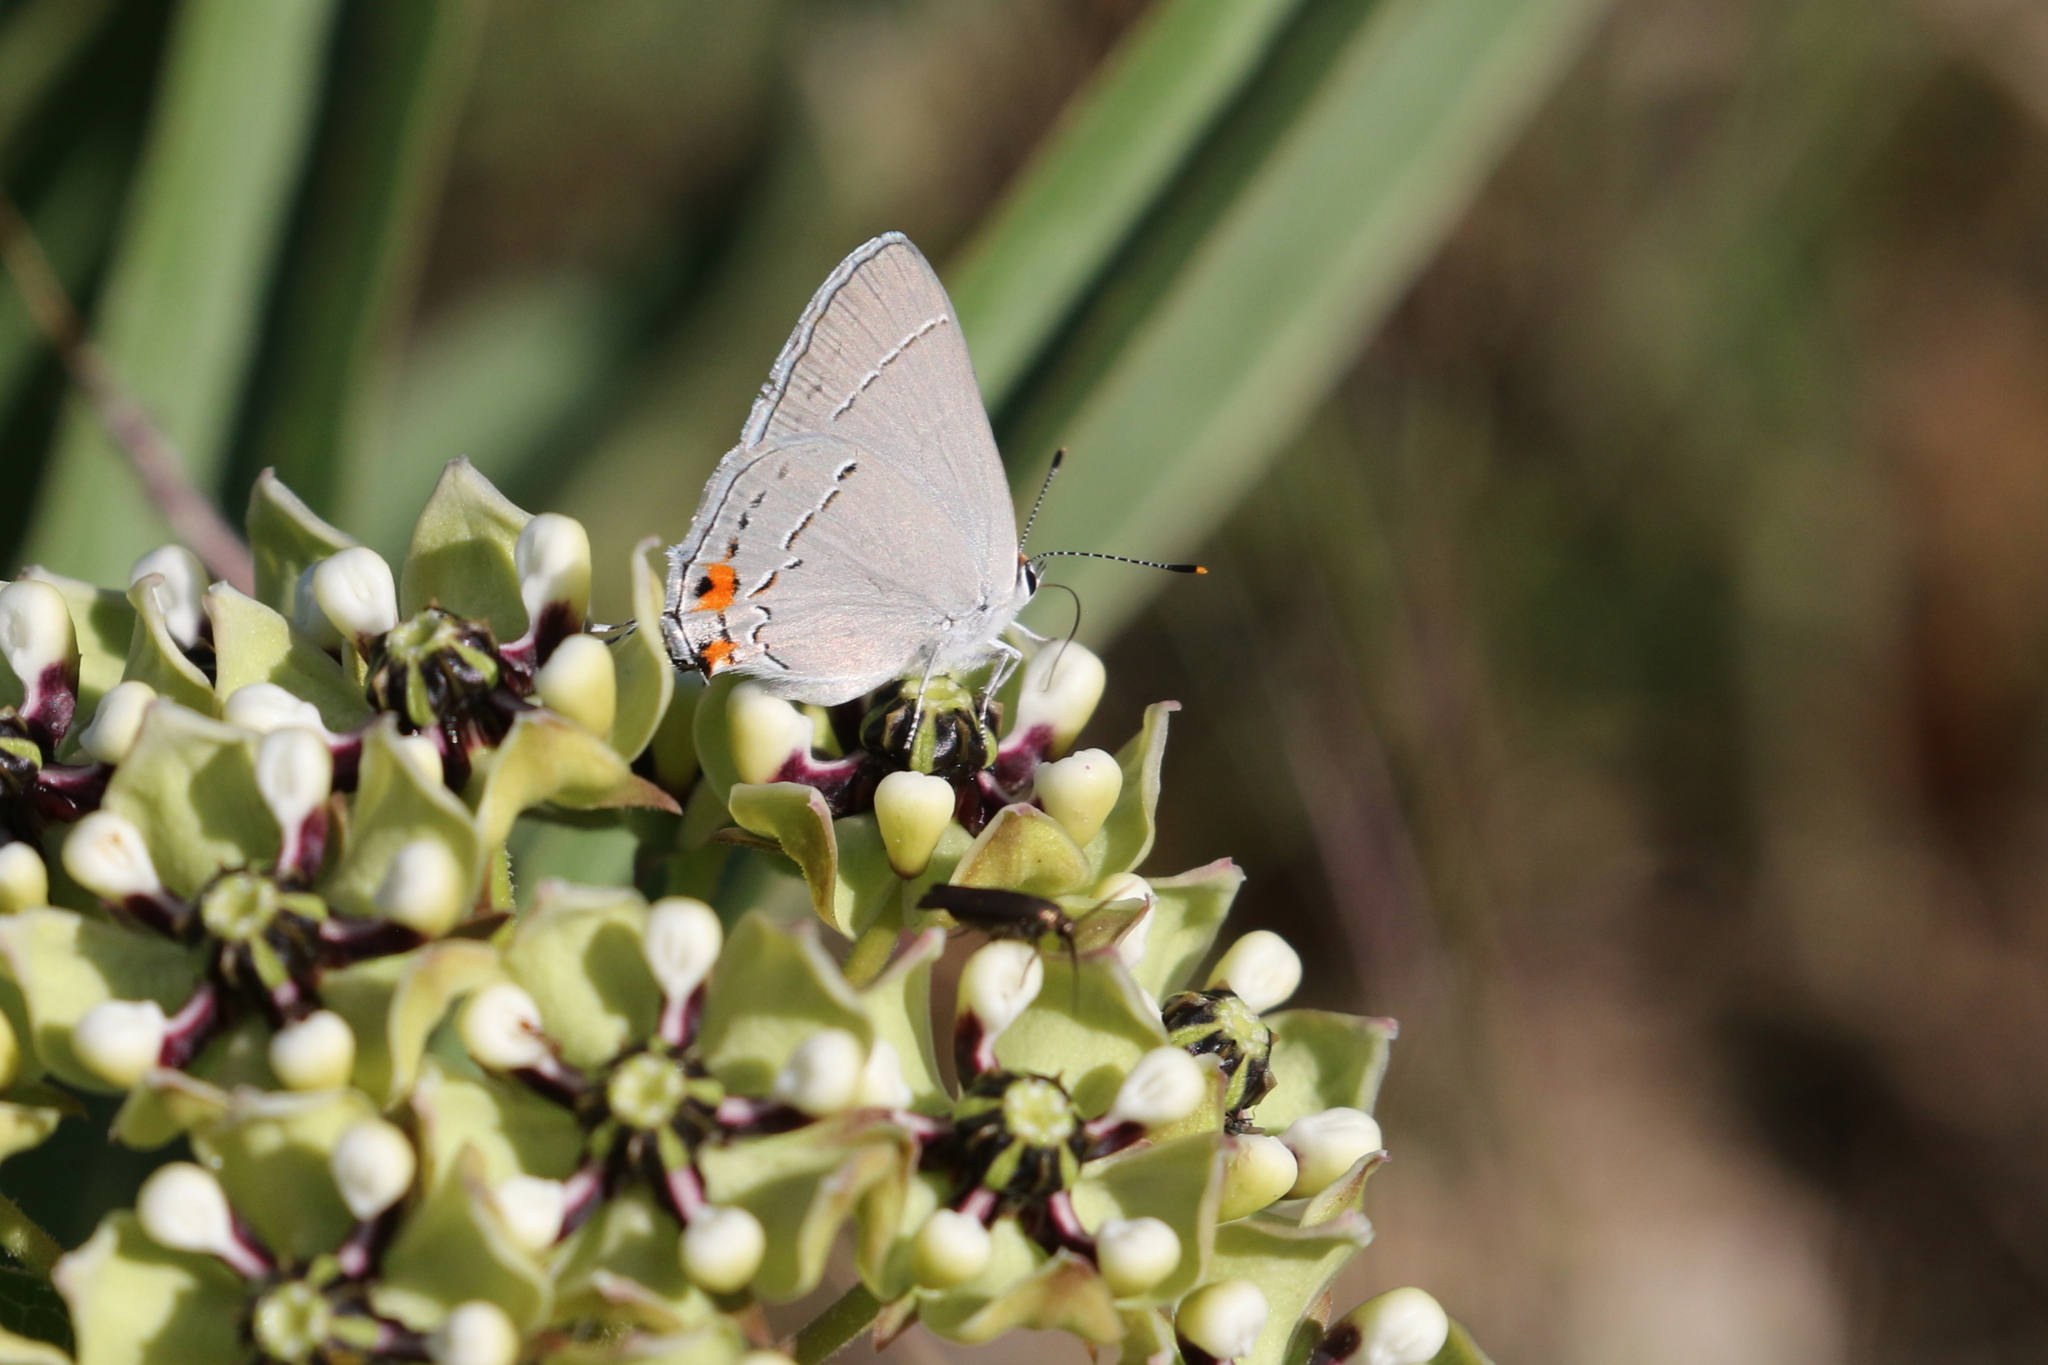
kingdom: Animalia
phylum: Arthropoda
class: Insecta
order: Lepidoptera
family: Lycaenidae
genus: Strymon
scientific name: Strymon melinus
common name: Gray hairstreak
